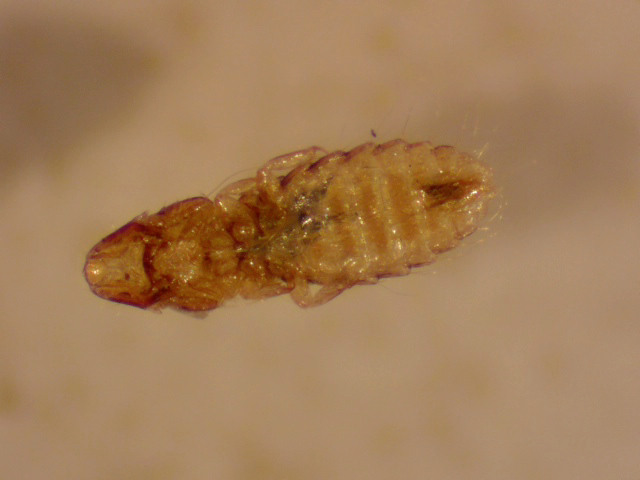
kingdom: Animalia
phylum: Arthropoda
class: Insecta
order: Psocodea
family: Philopteridae
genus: Rallicola
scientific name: Rallicola harrisoni
